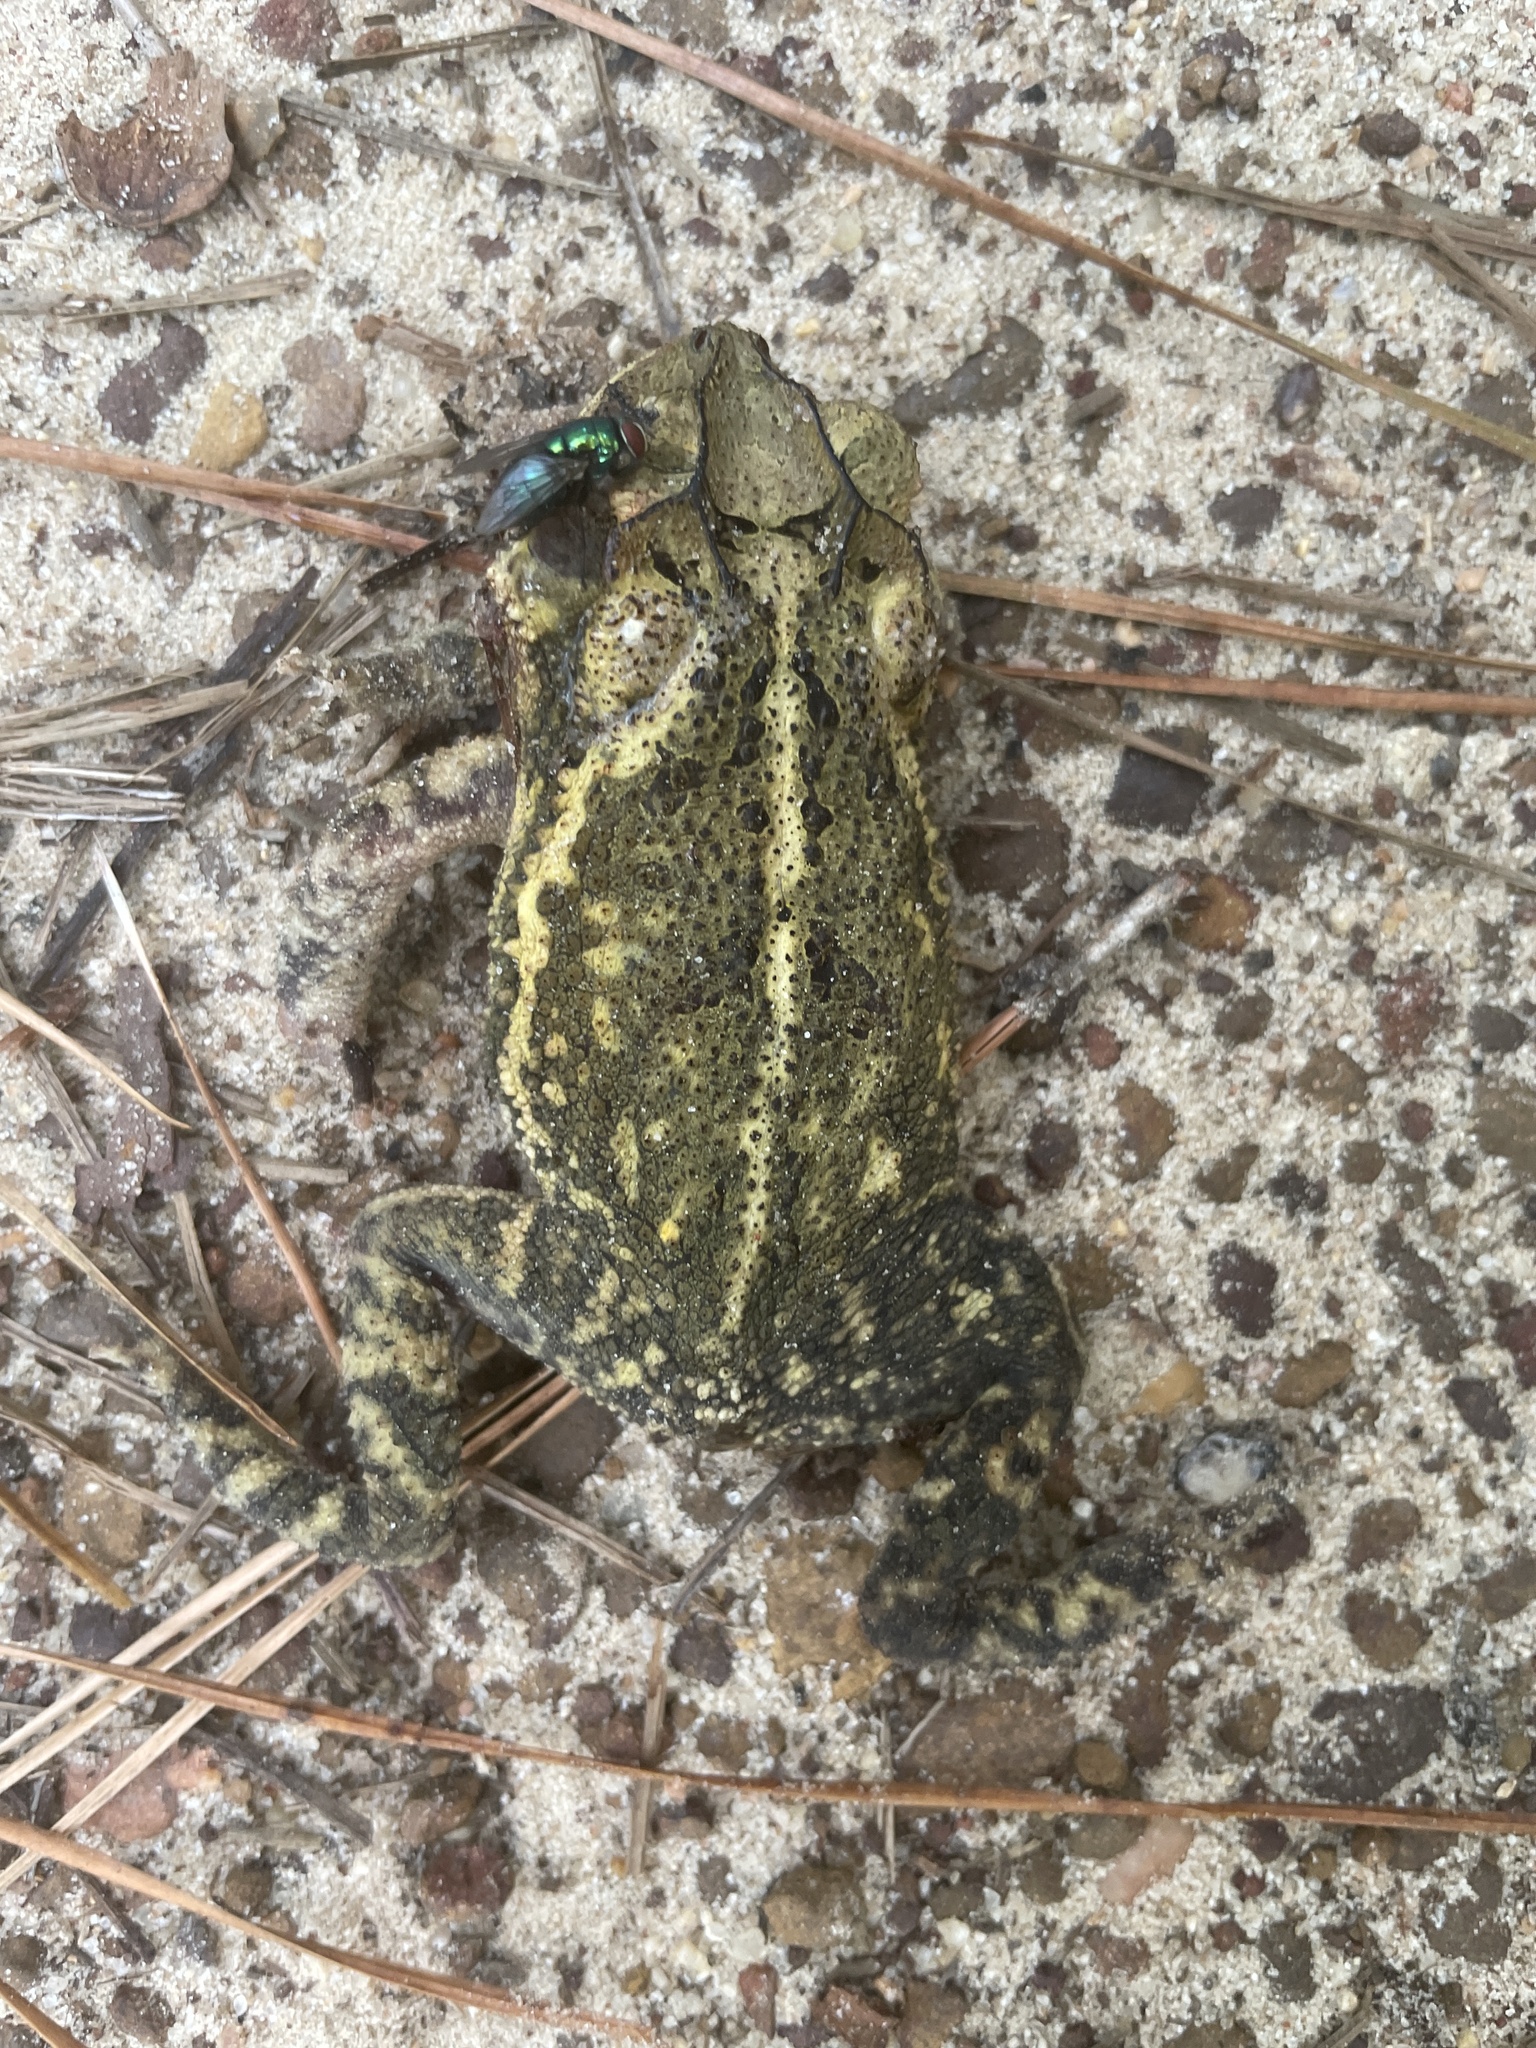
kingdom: Animalia
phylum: Chordata
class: Amphibia
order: Anura
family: Bufonidae
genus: Incilius
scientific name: Incilius nebulifer
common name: Gulf coast toad
